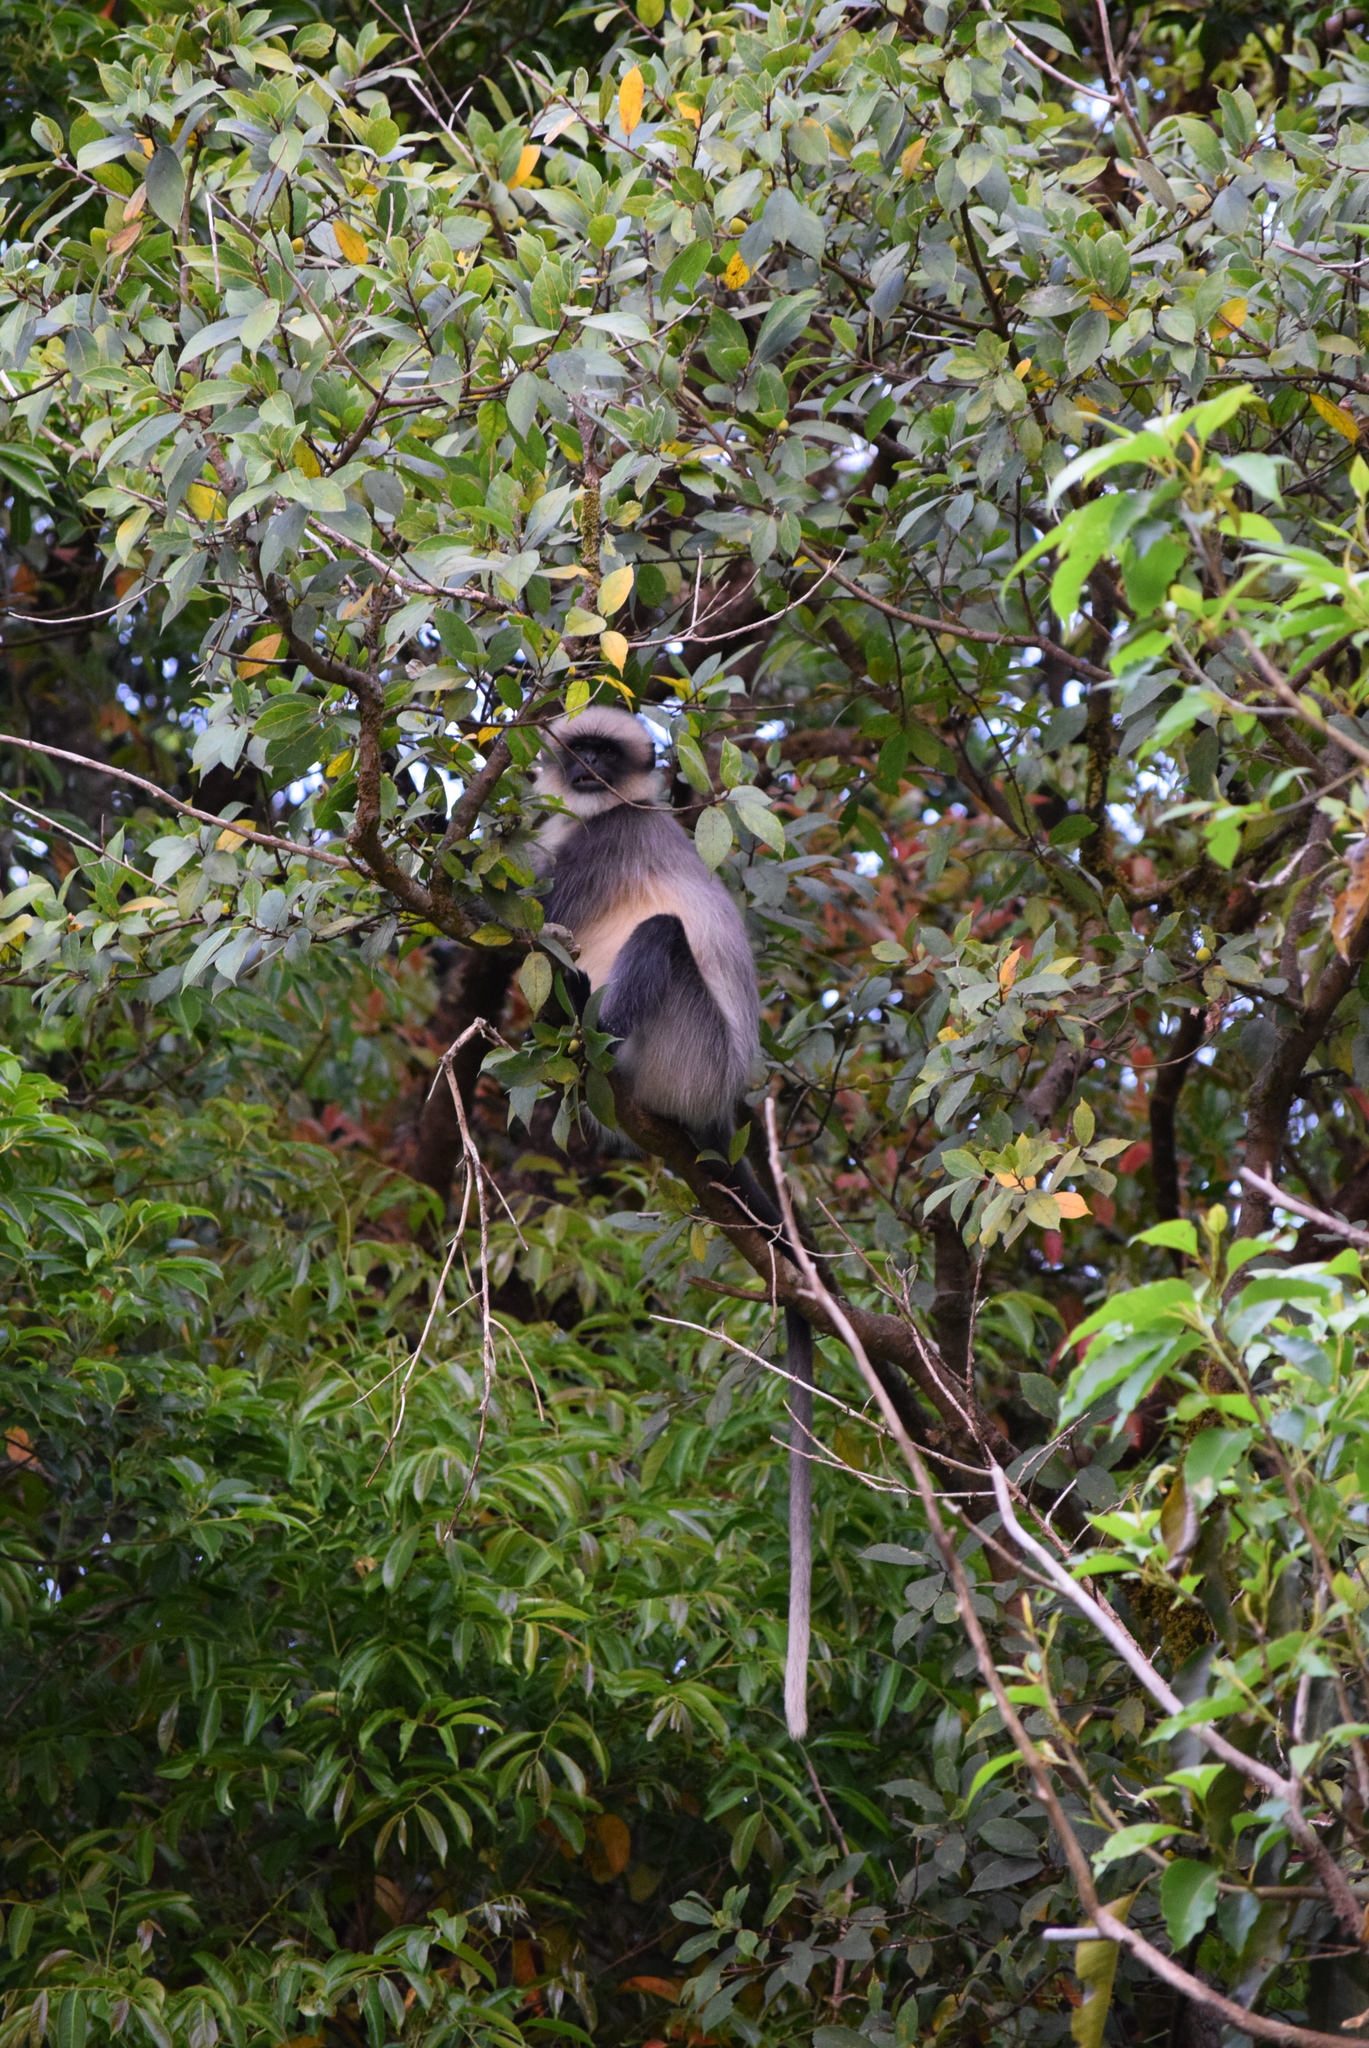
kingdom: Animalia
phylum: Chordata
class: Mammalia
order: Primates
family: Cercopithecidae
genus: Semnopithecus
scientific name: Semnopithecus hypoleucos
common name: Black-footed gray langur
